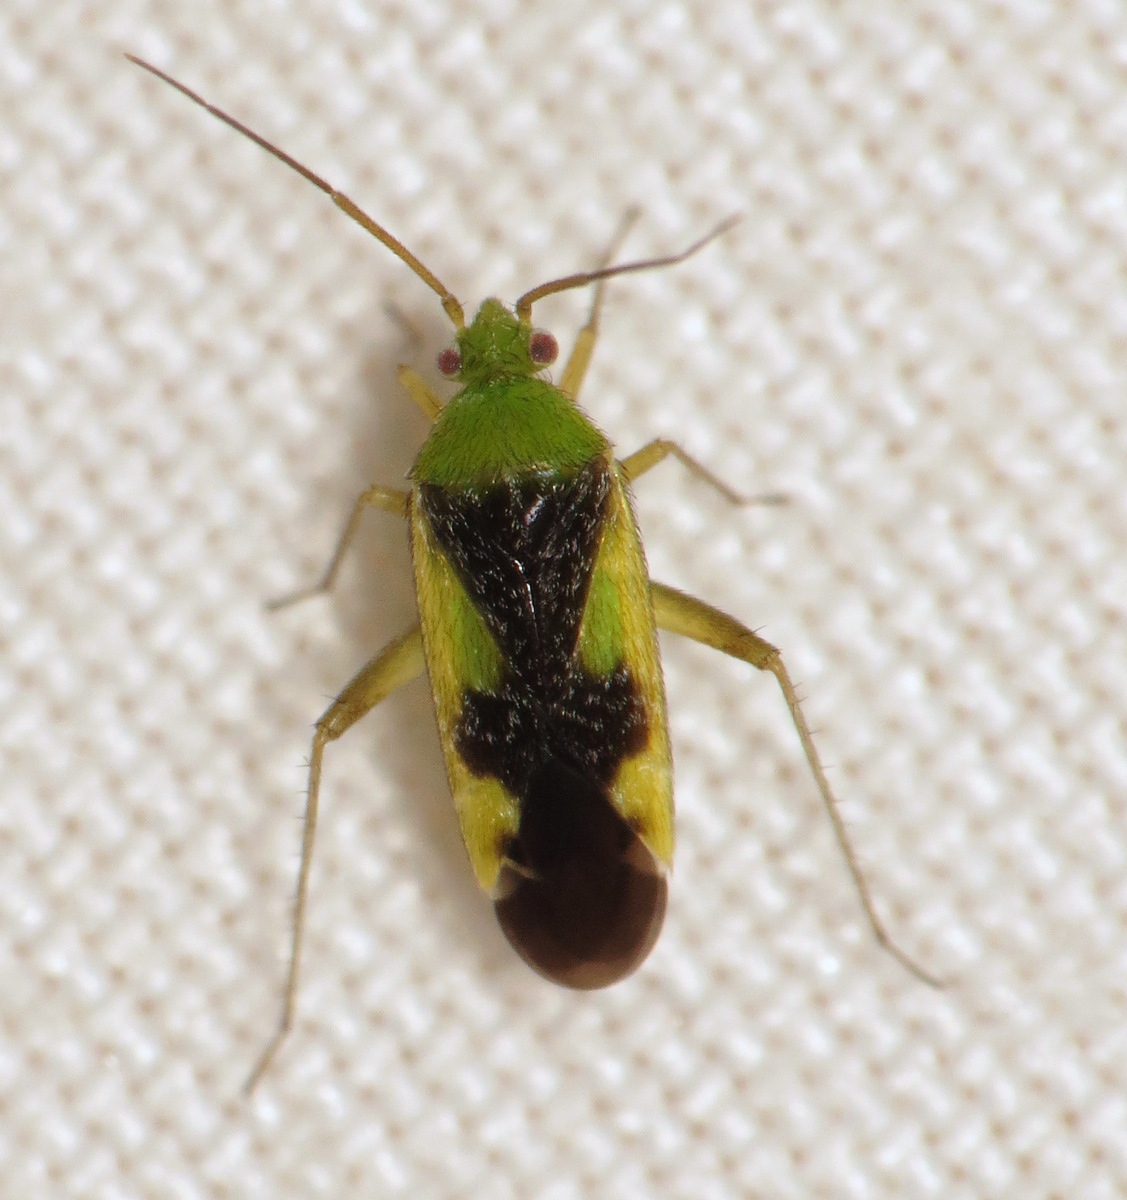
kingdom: Animalia
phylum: Arthropoda
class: Insecta
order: Hemiptera
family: Miridae
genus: Reuteroscopus
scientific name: Reuteroscopus ornatus
